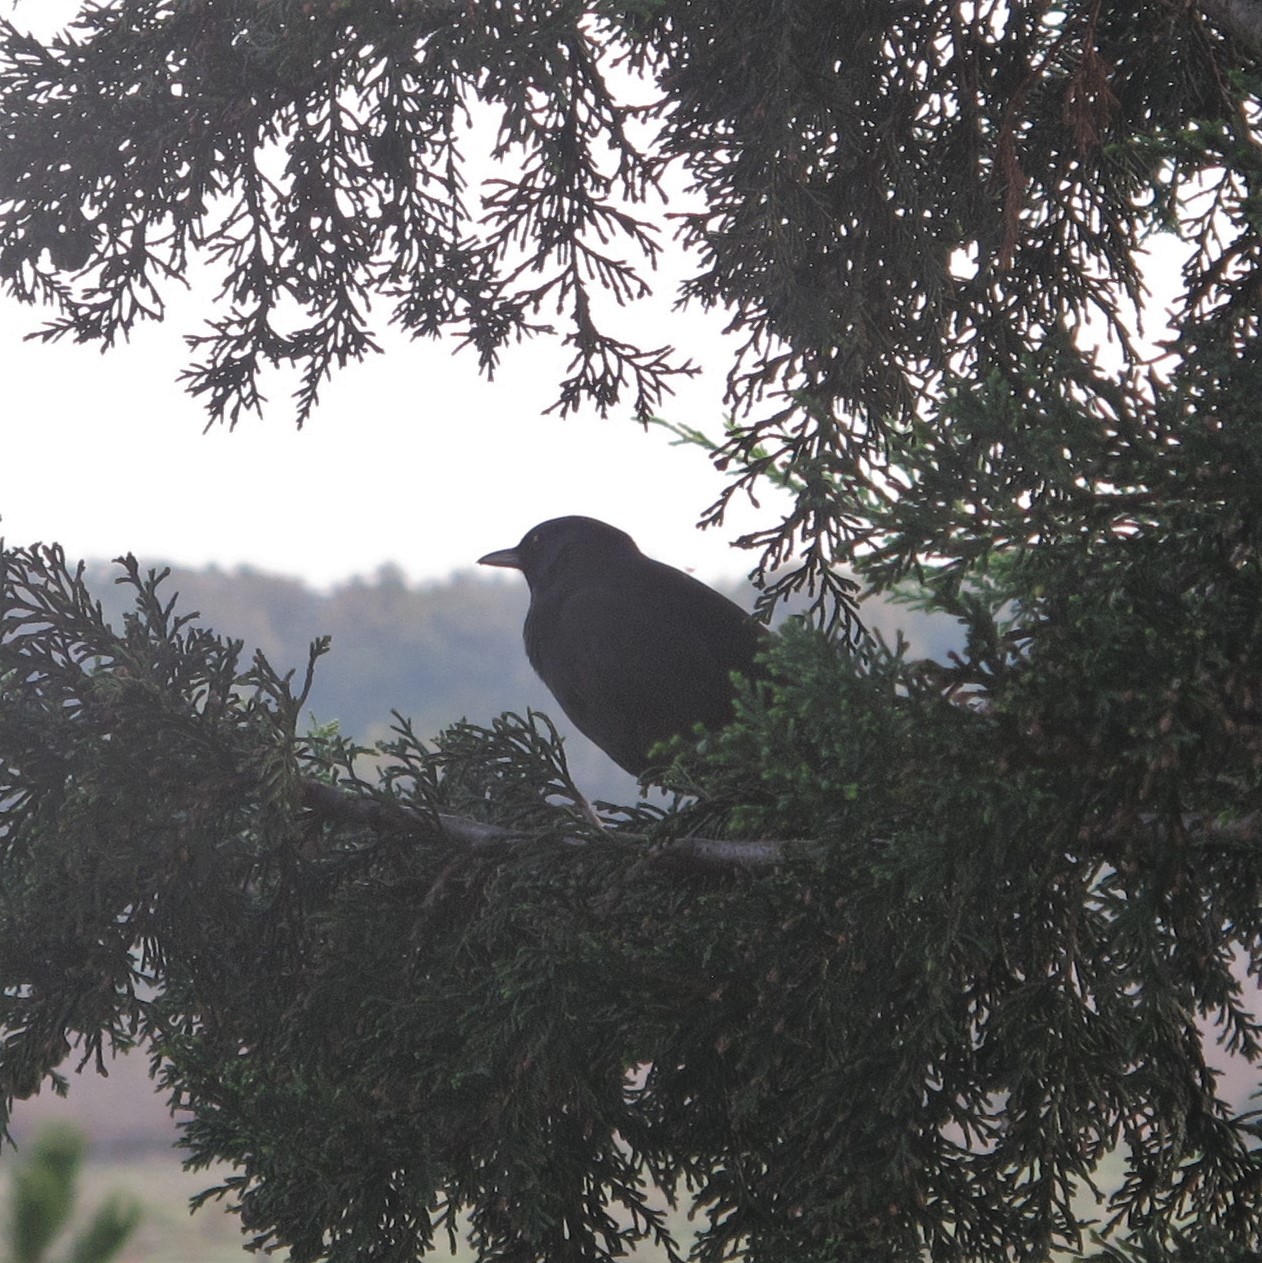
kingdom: Animalia
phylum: Chordata
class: Aves
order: Passeriformes
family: Turdidae
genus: Turdus
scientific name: Turdus merula
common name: Common blackbird
